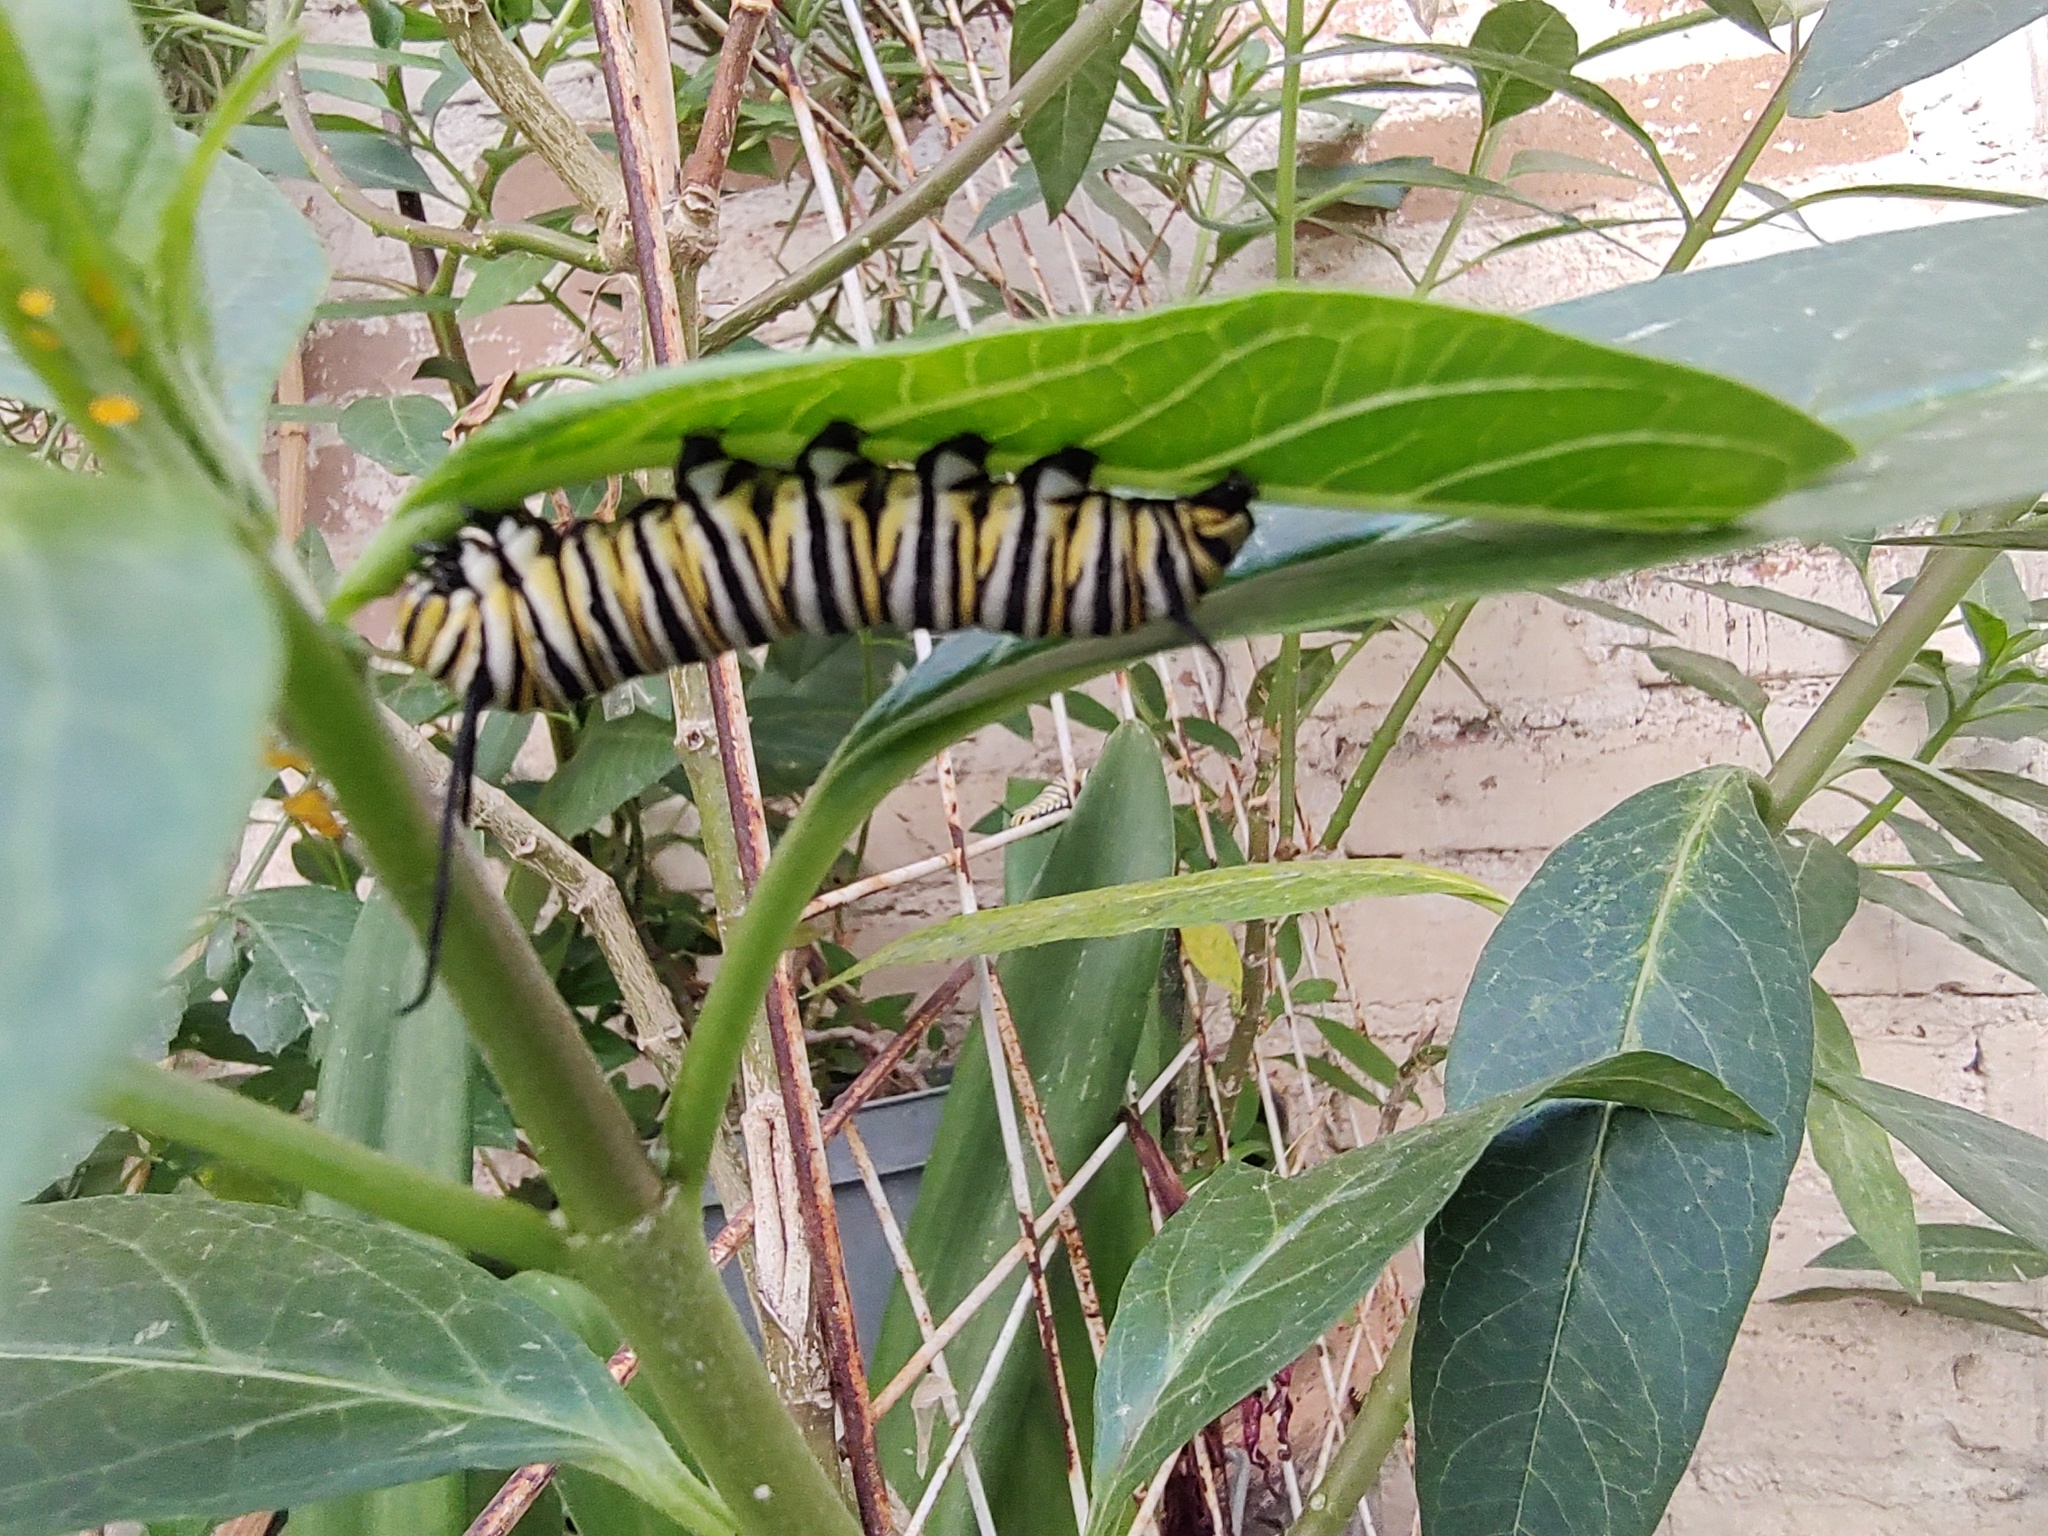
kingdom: Animalia
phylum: Arthropoda
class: Insecta
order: Lepidoptera
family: Nymphalidae
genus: Danaus
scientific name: Danaus plexippus
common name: Monarch
